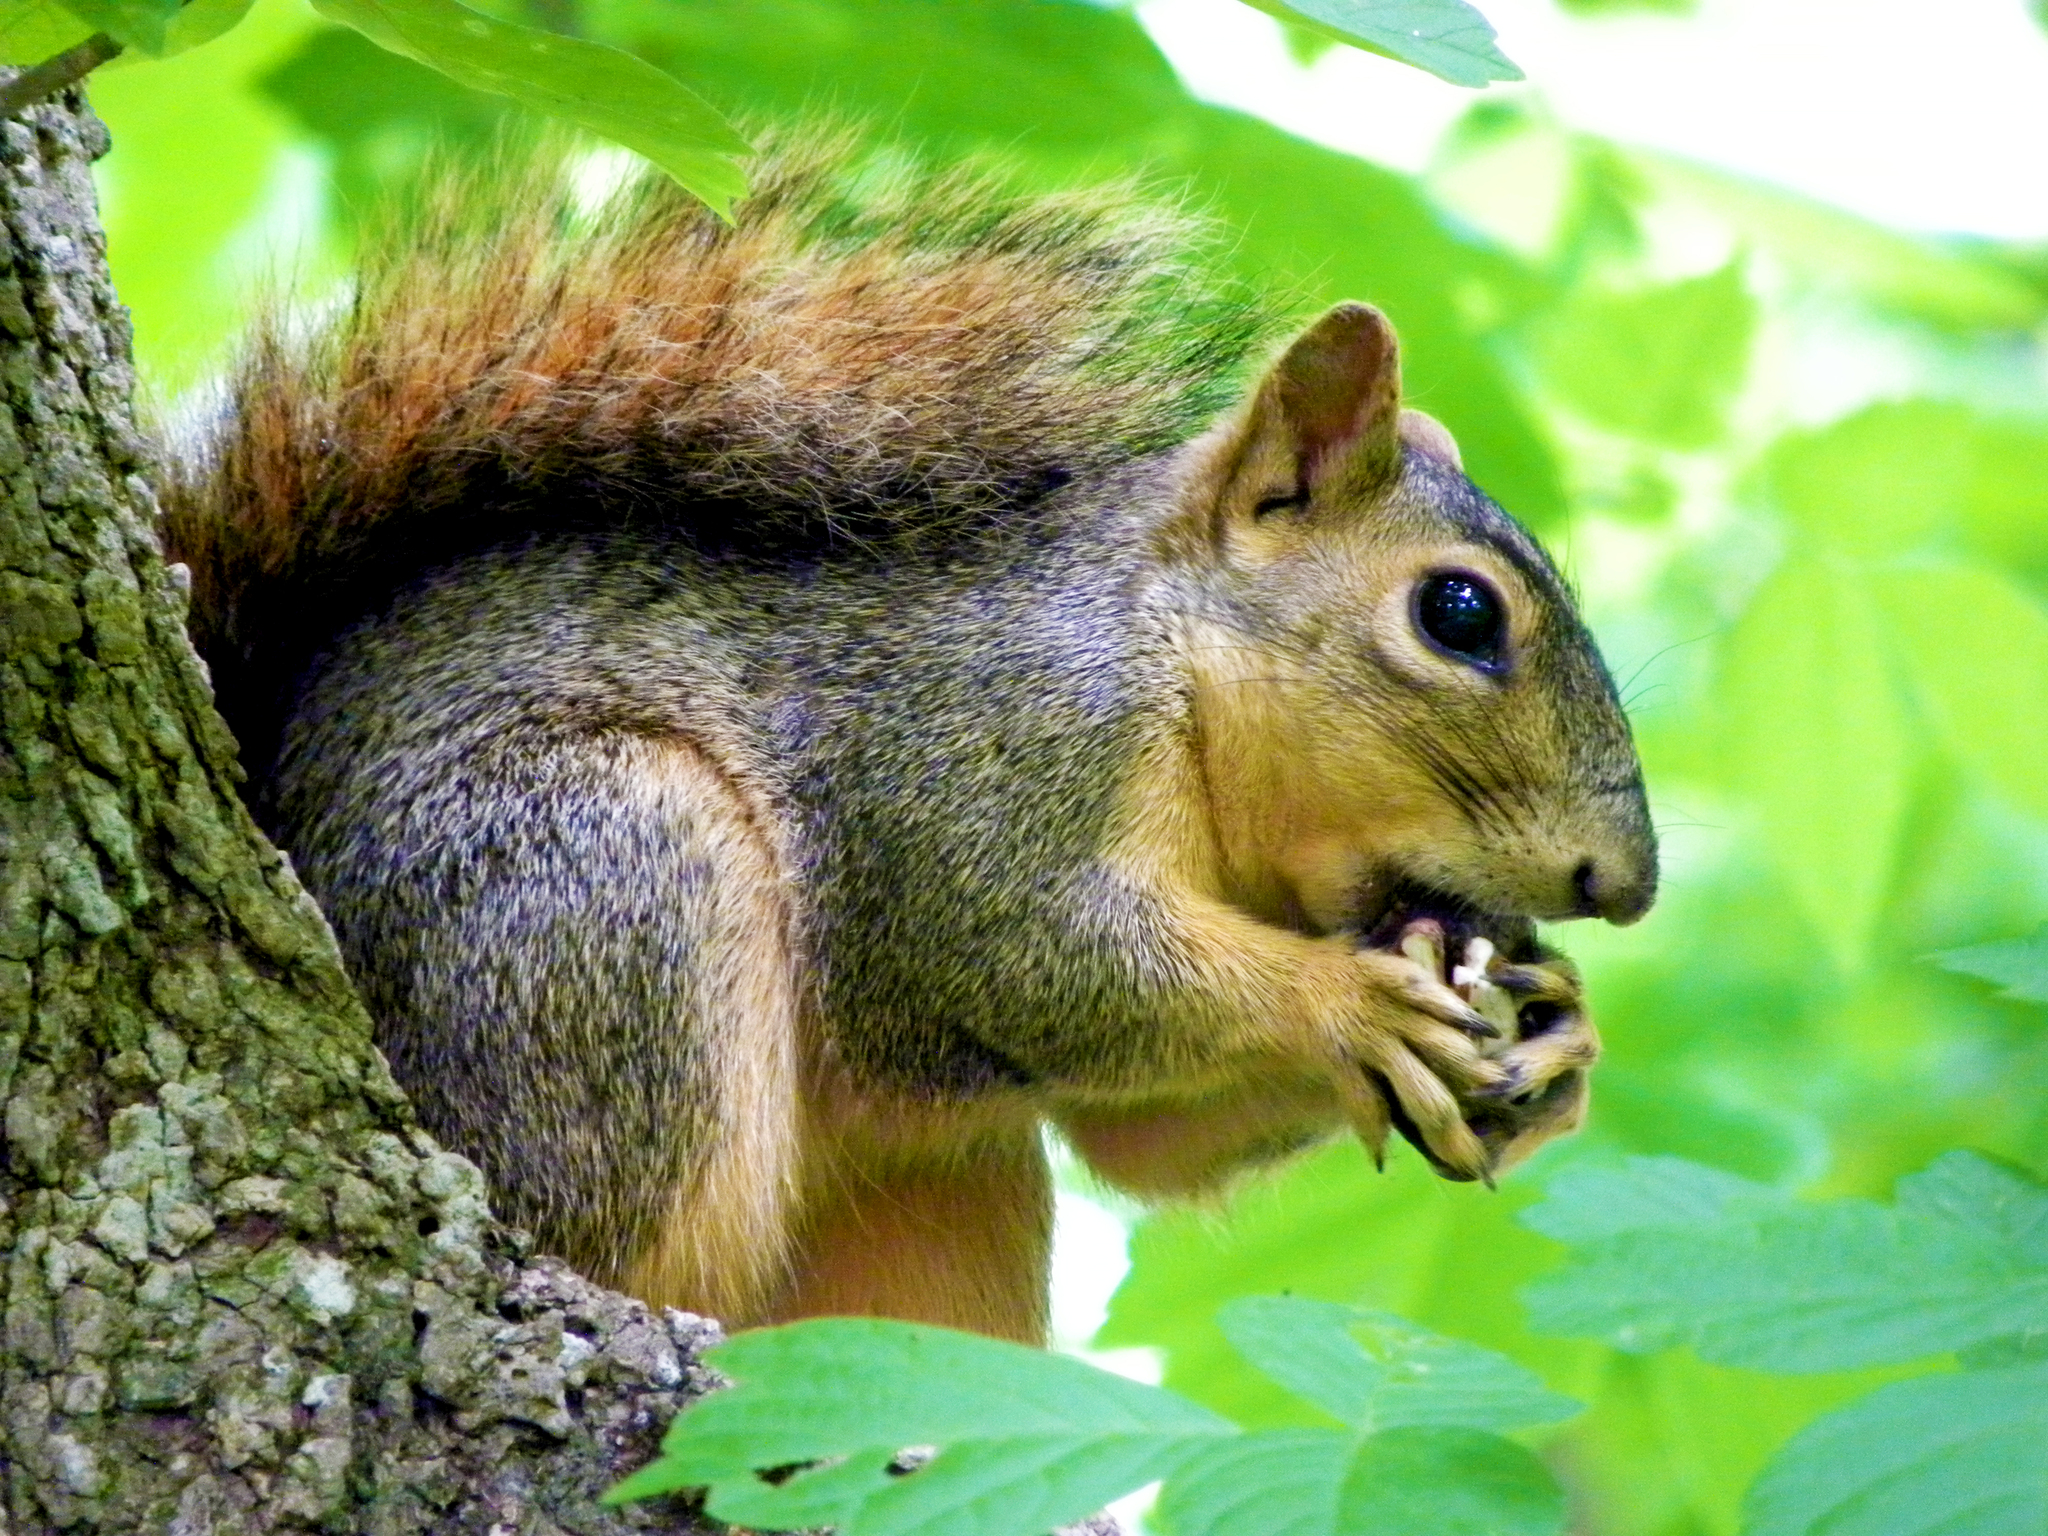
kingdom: Animalia
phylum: Chordata
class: Mammalia
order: Rodentia
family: Sciuridae
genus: Sciurus
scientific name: Sciurus niger
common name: Fox squirrel
